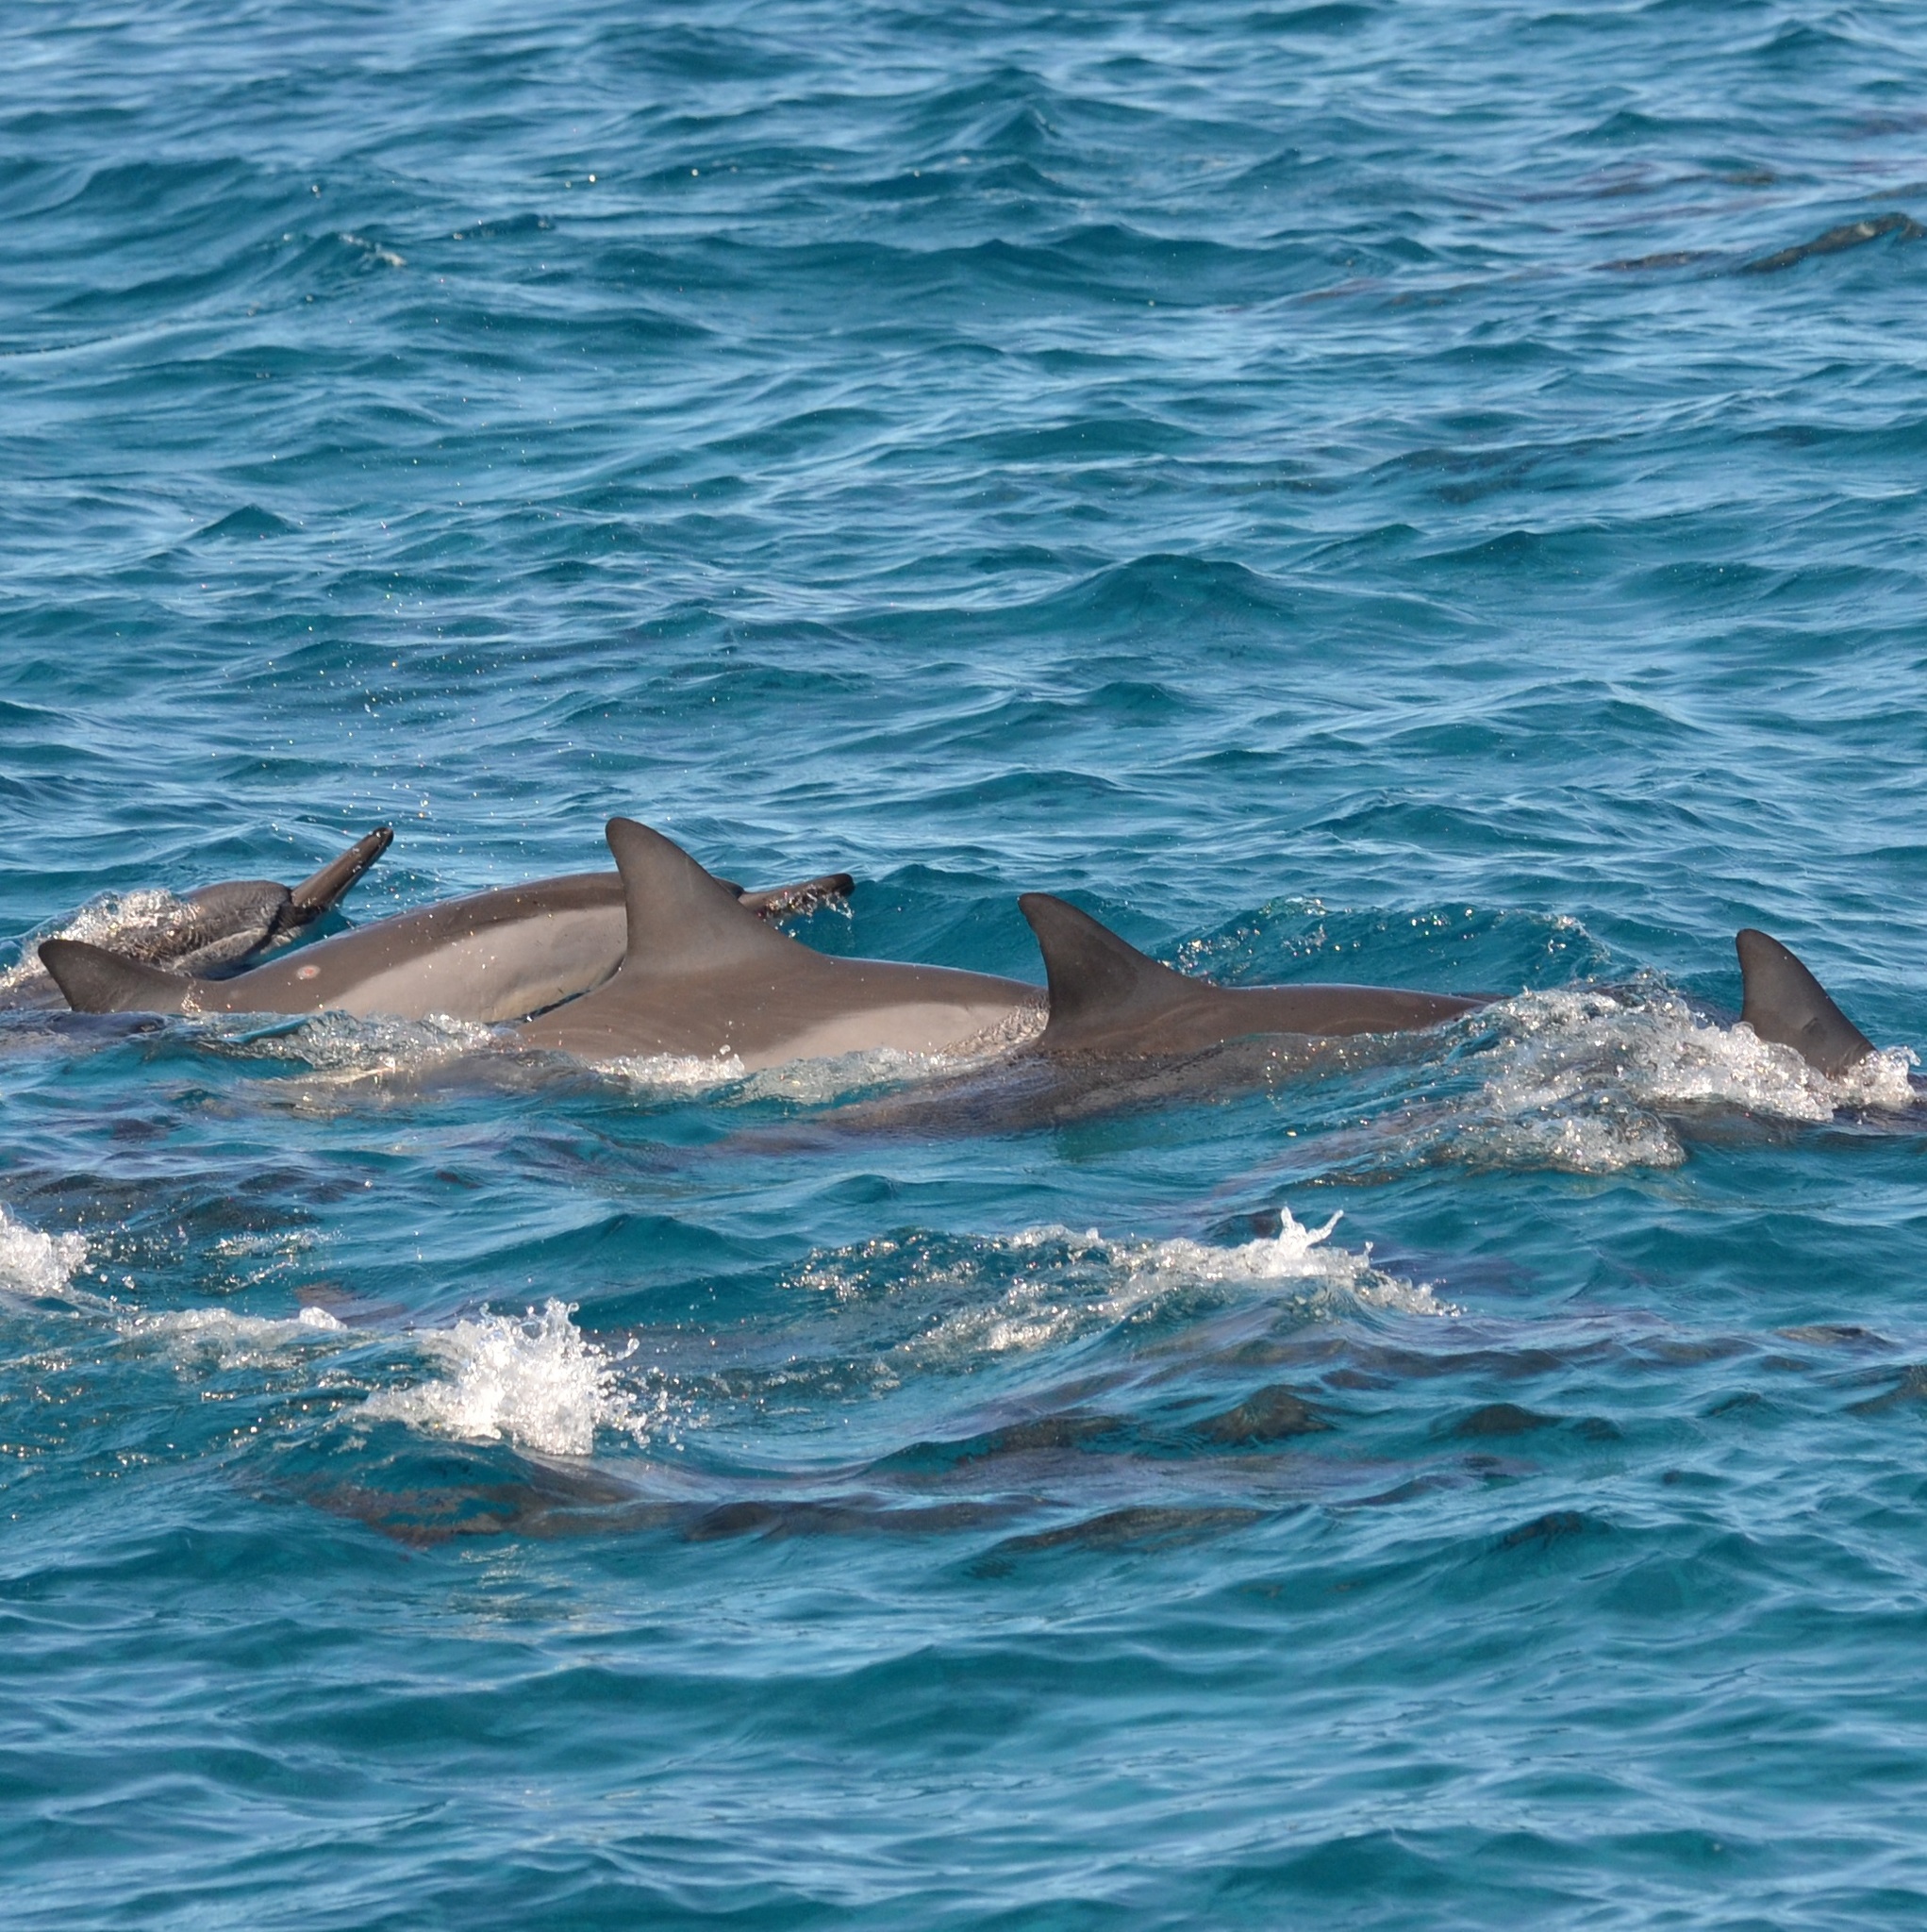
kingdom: Animalia
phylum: Chordata
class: Mammalia
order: Cetacea
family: Delphinidae
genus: Stenella
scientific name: Stenella longirostris
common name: Spinner dolphin
